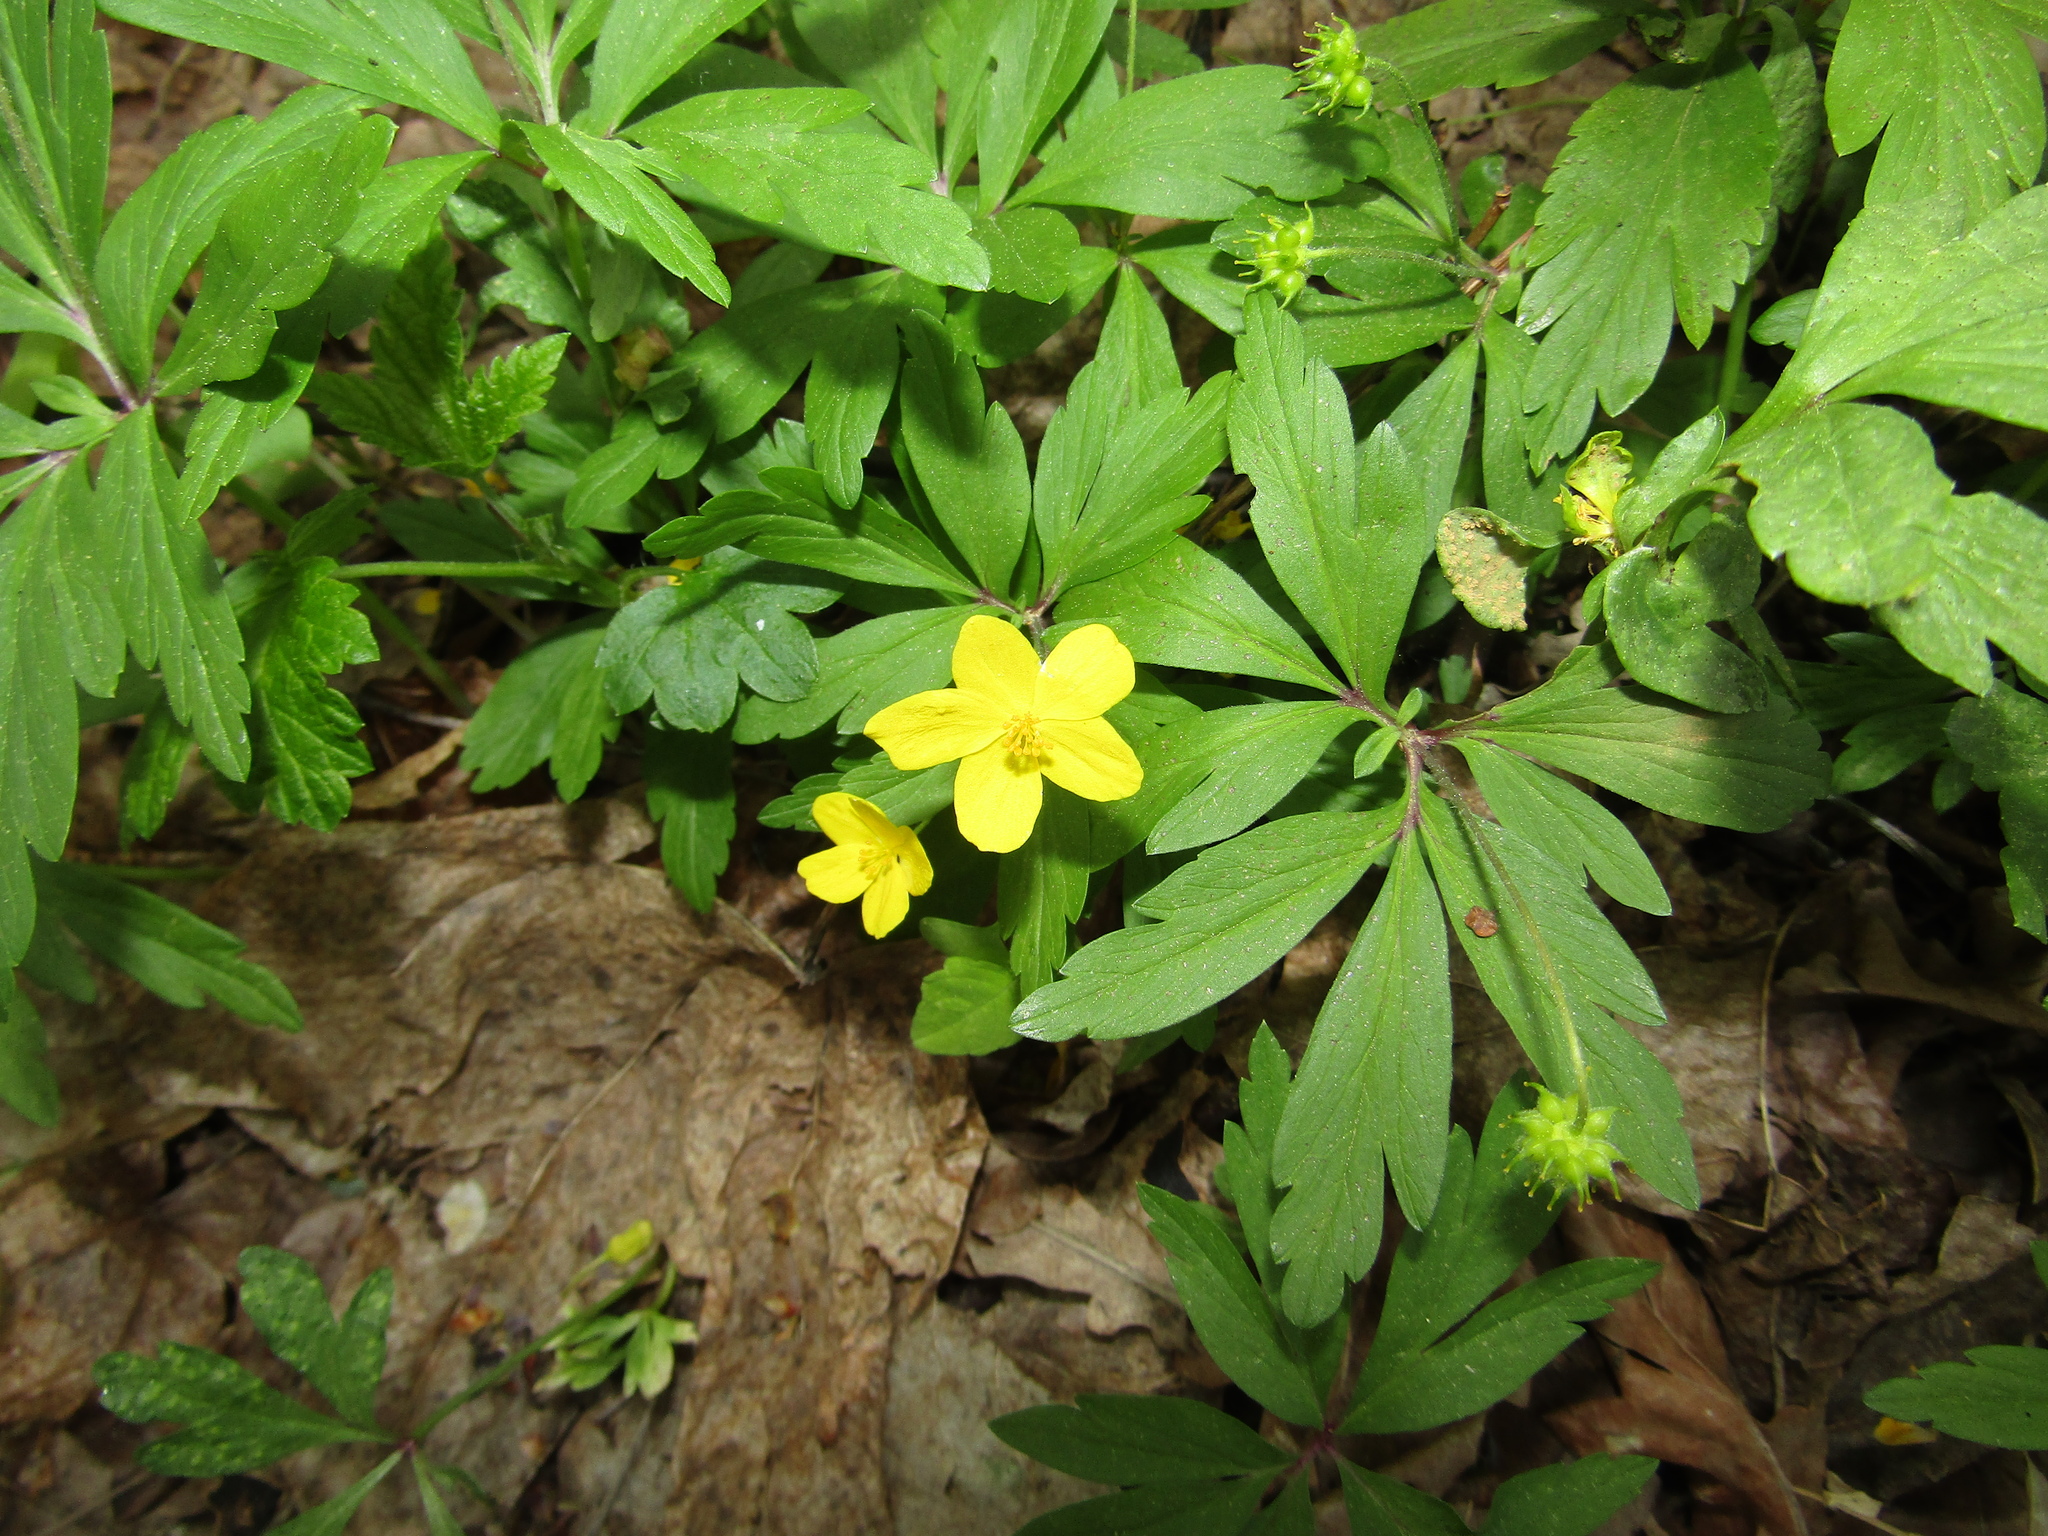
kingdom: Plantae
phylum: Tracheophyta
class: Magnoliopsida
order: Ranunculales
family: Ranunculaceae
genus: Anemone
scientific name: Anemone ranunculoides
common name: Yellow anemone
